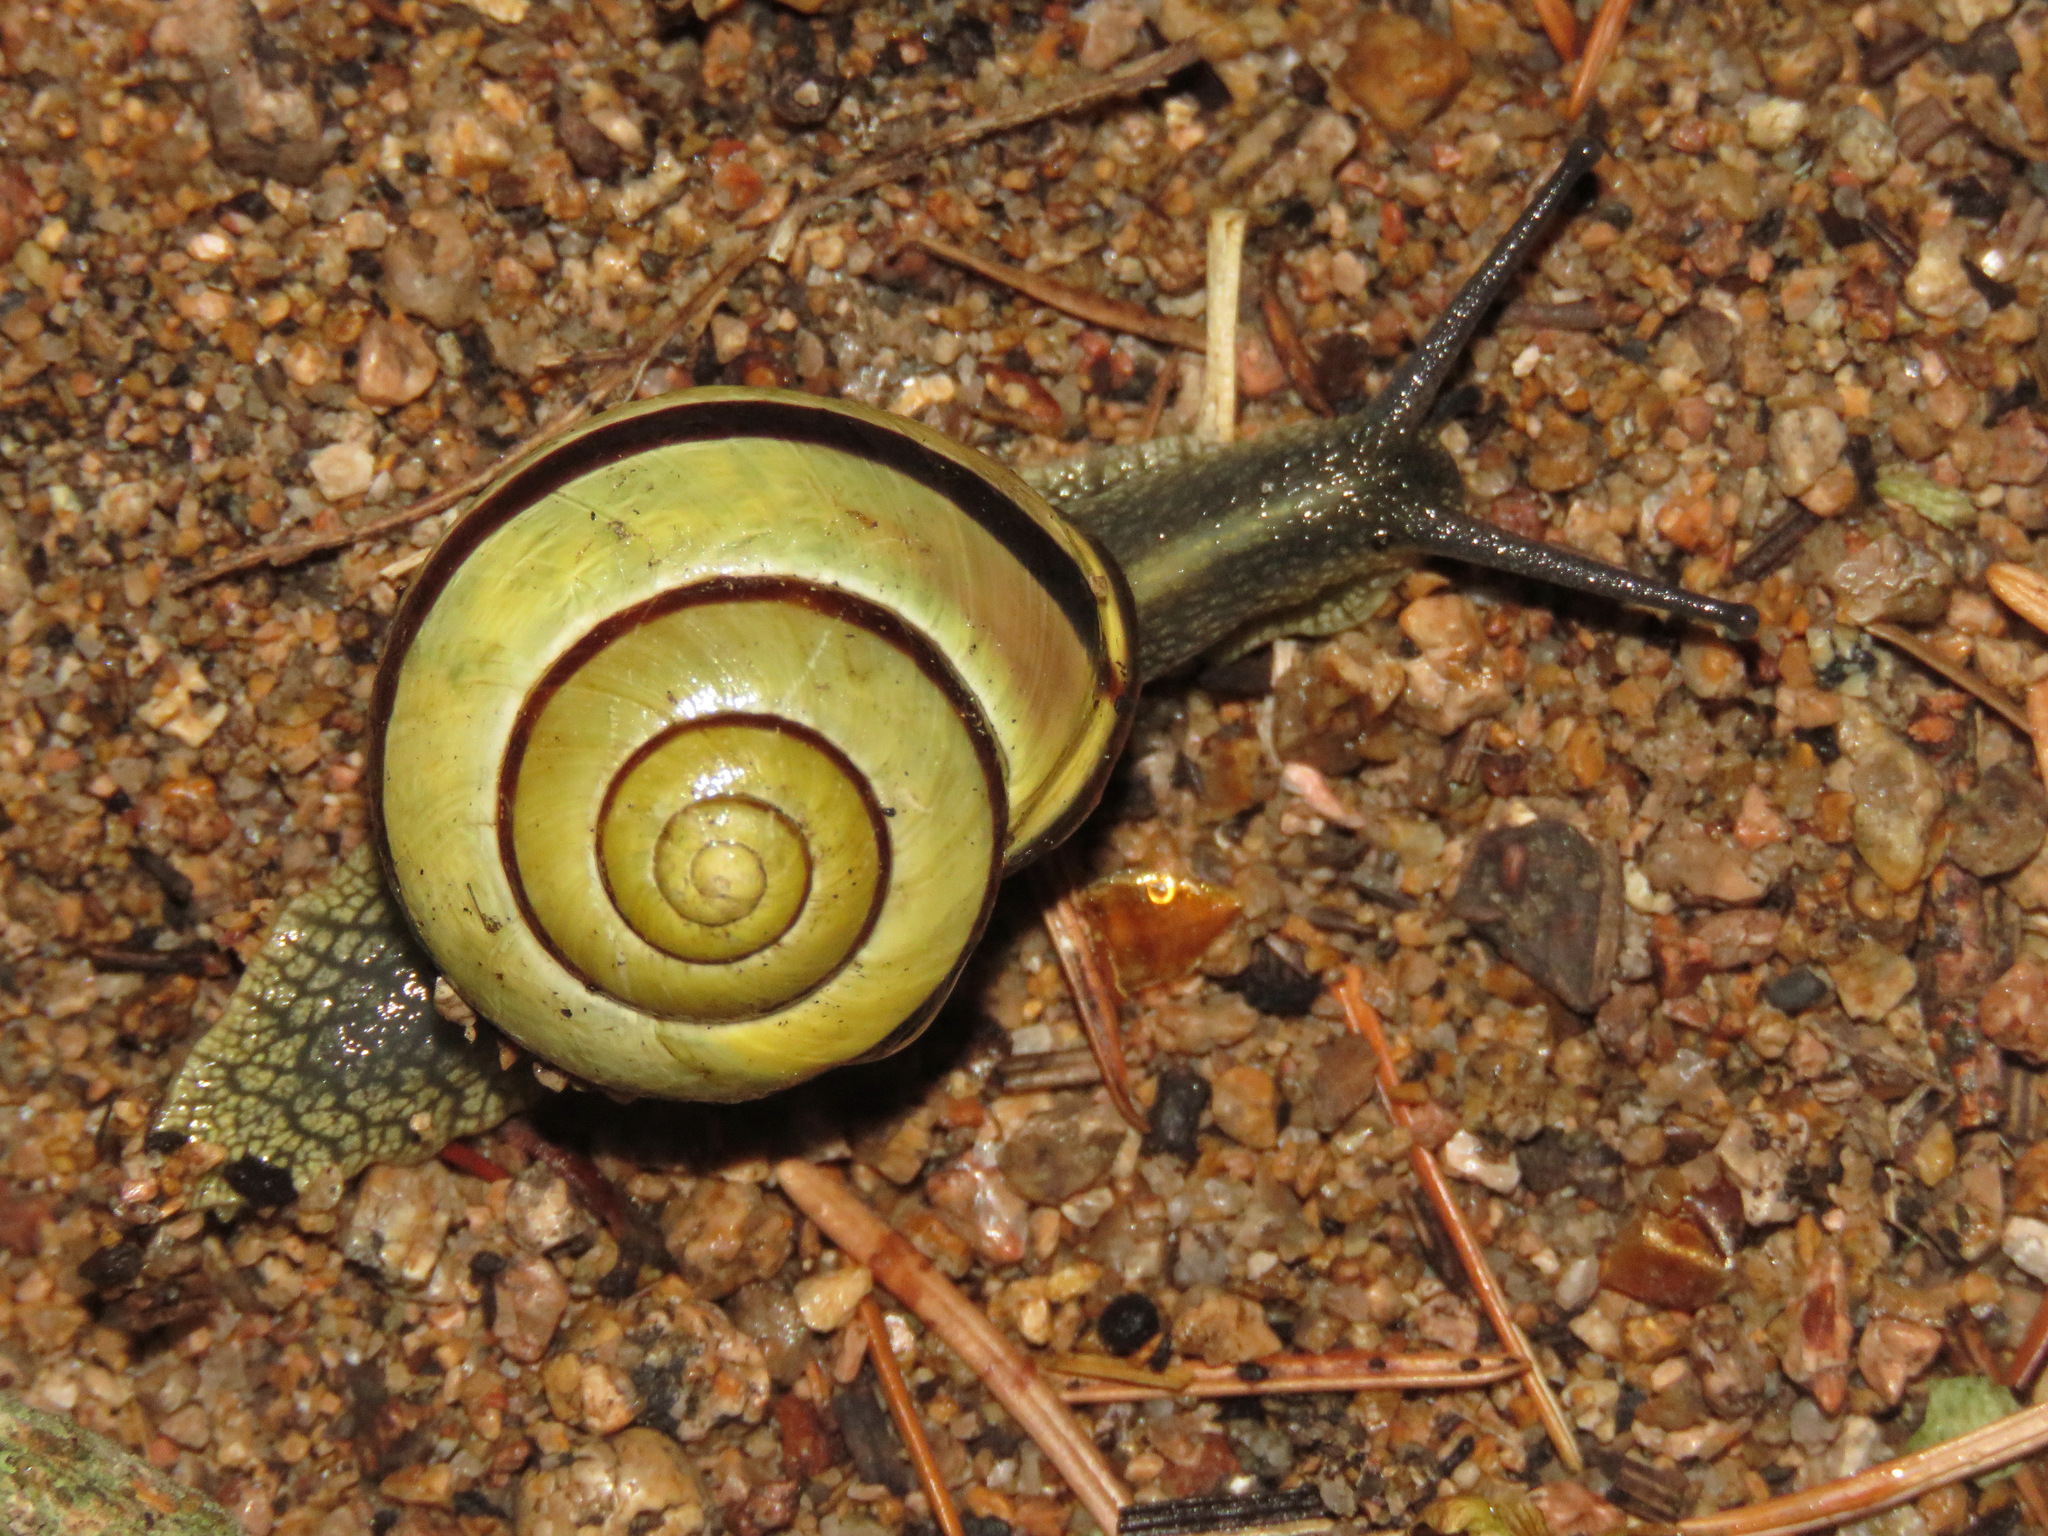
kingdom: Animalia
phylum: Mollusca
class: Gastropoda
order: Stylommatophora
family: Helicidae
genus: Cepaea
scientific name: Cepaea nemoralis
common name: Grovesnail
